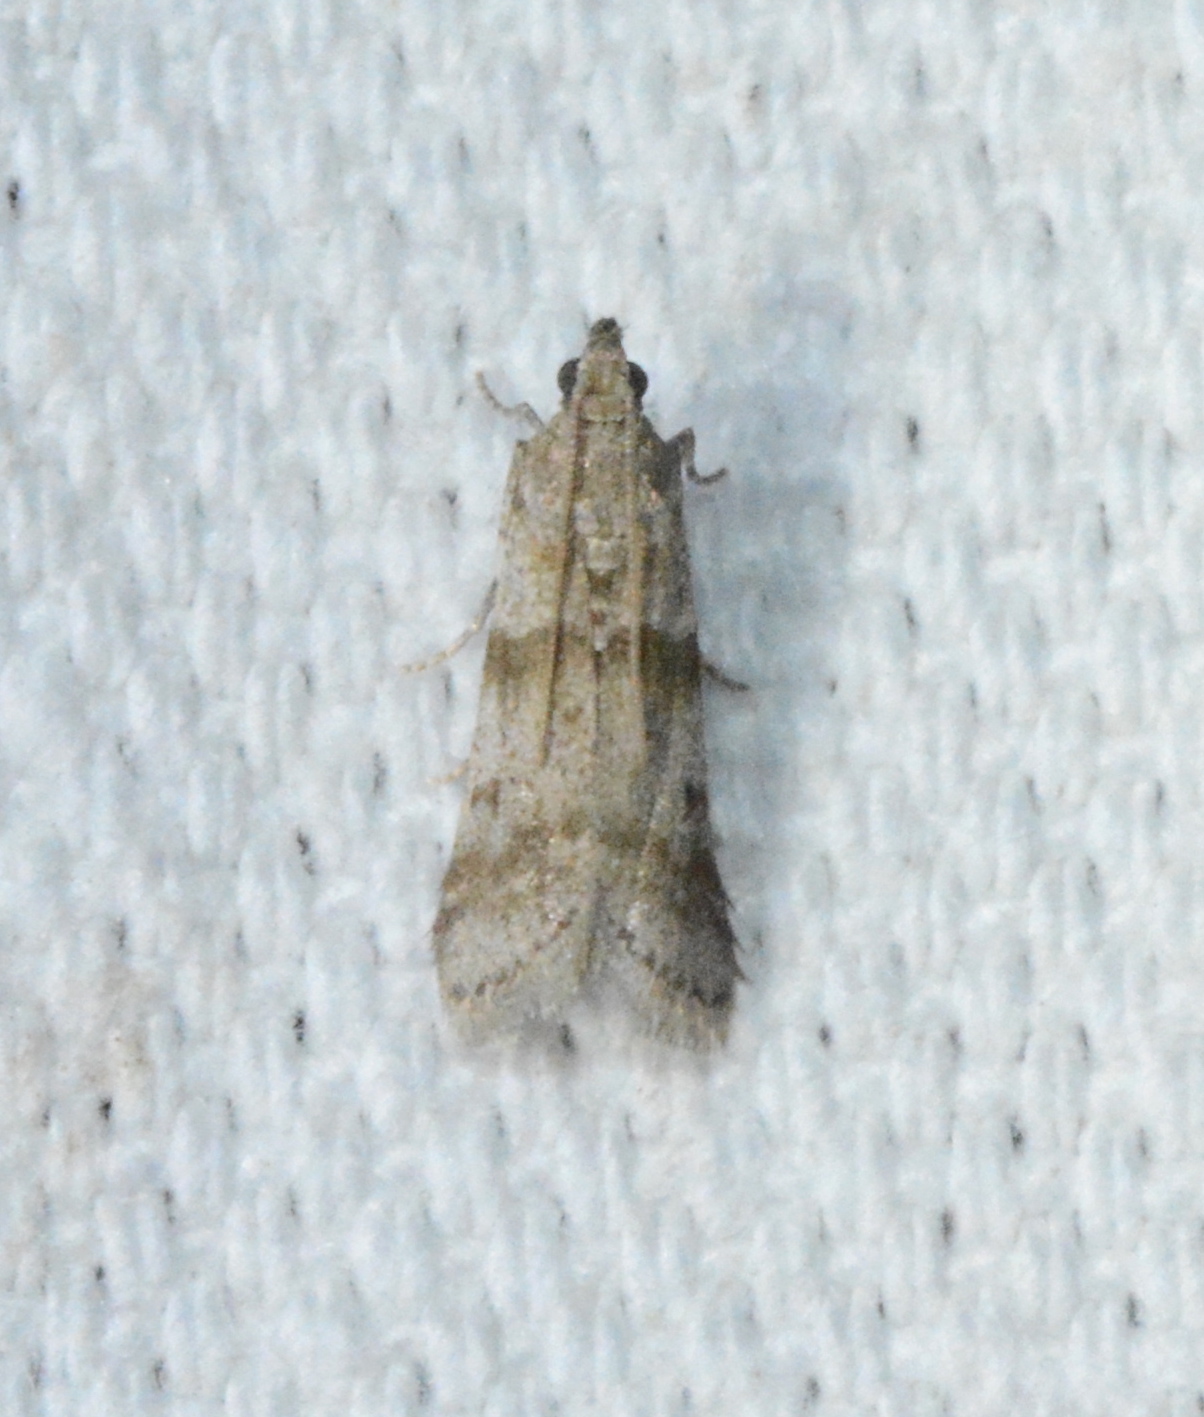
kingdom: Animalia
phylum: Arthropoda
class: Insecta
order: Lepidoptera
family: Pyralidae
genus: Sciota
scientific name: Sciota uvinella
